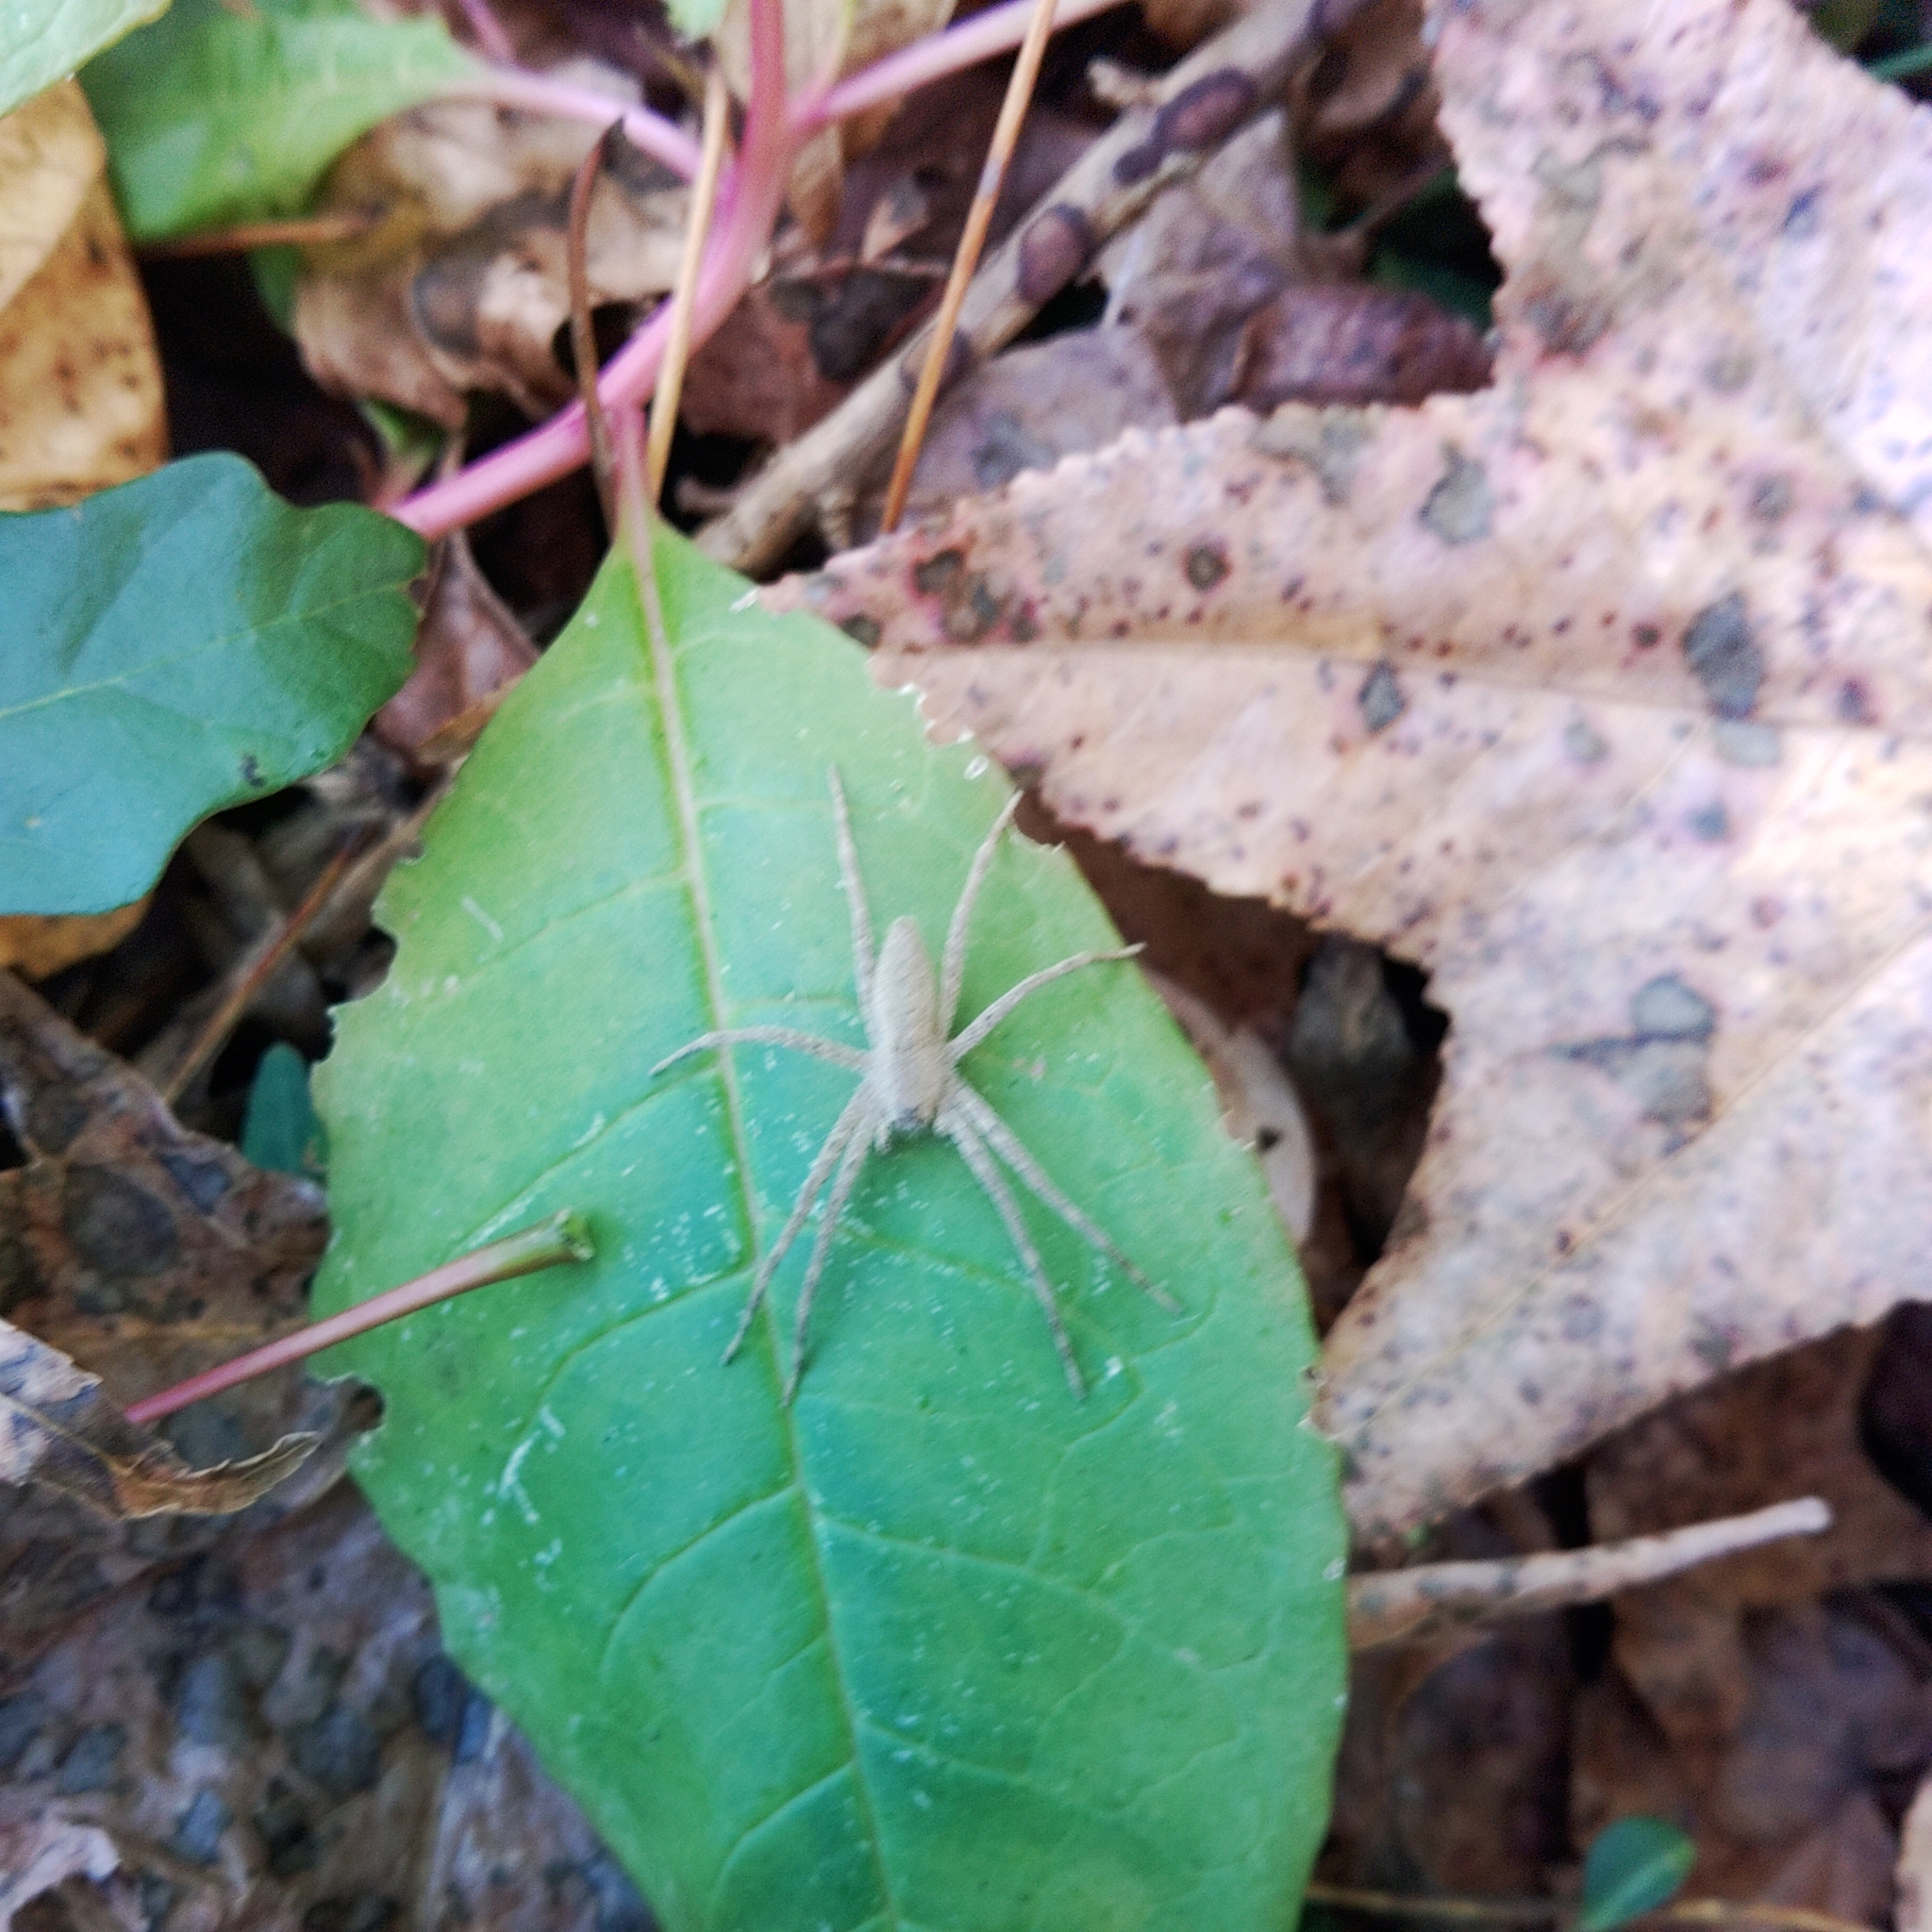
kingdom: Animalia
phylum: Arthropoda
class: Arachnida
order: Araneae
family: Pisauridae
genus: Pisaurina
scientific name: Pisaurina mira
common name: American nursery web spider
